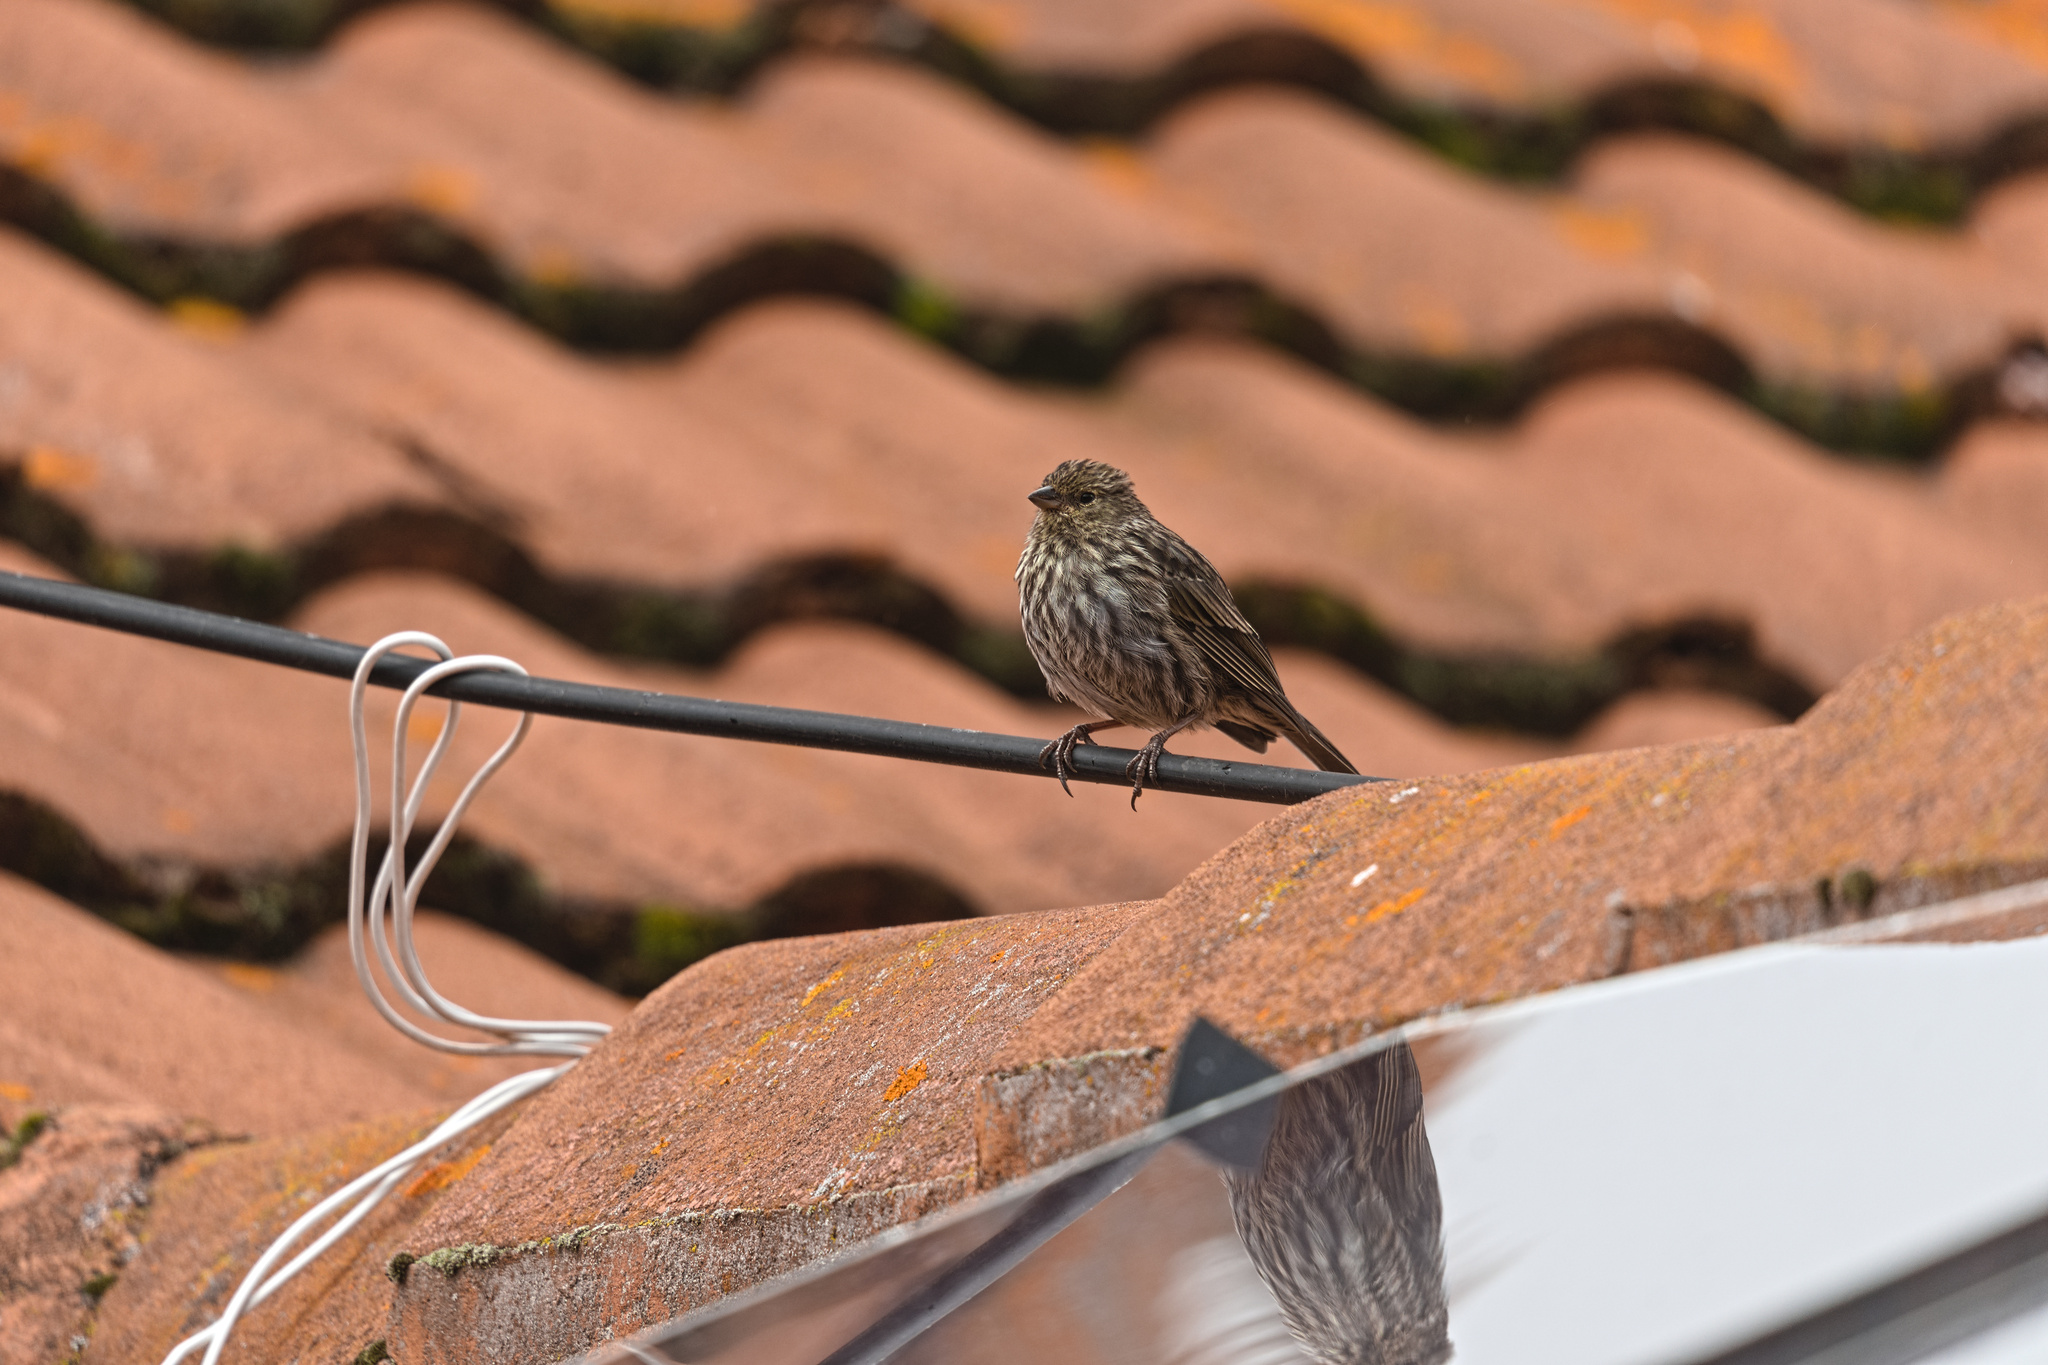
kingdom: Animalia
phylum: Chordata
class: Aves
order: Passeriformes
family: Thraupidae
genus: Geospizopsis
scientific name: Geospizopsis unicolor
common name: Plumbeous sierra-finch
